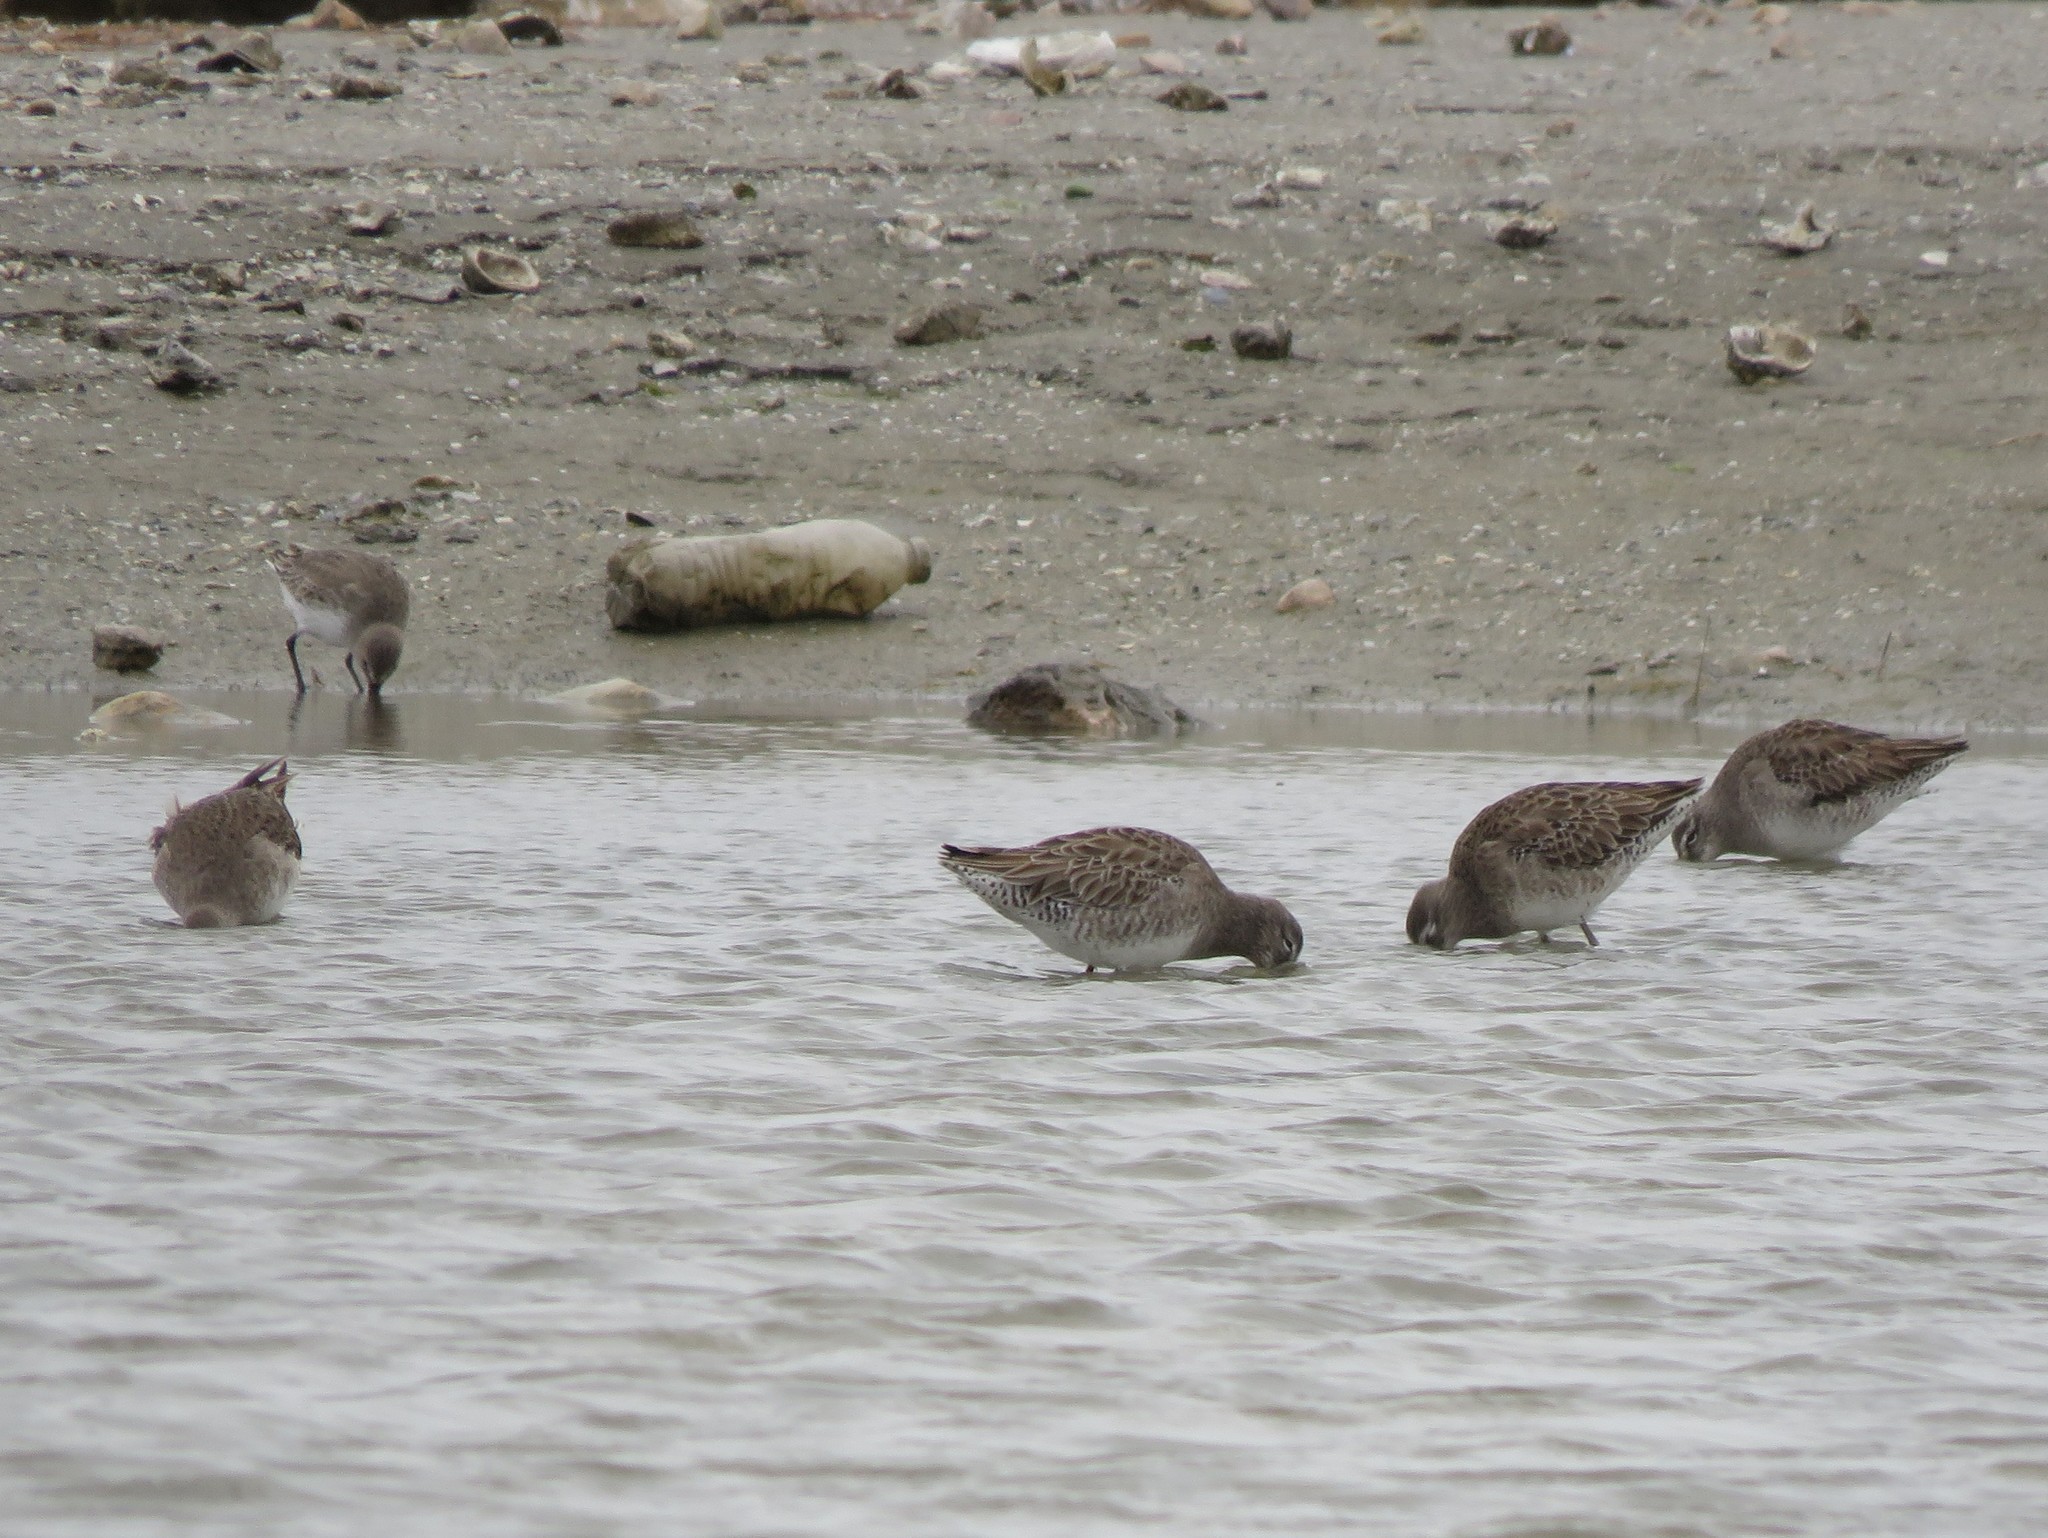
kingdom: Animalia
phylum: Chordata
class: Aves
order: Charadriiformes
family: Scolopacidae
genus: Limnodromus
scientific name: Limnodromus
